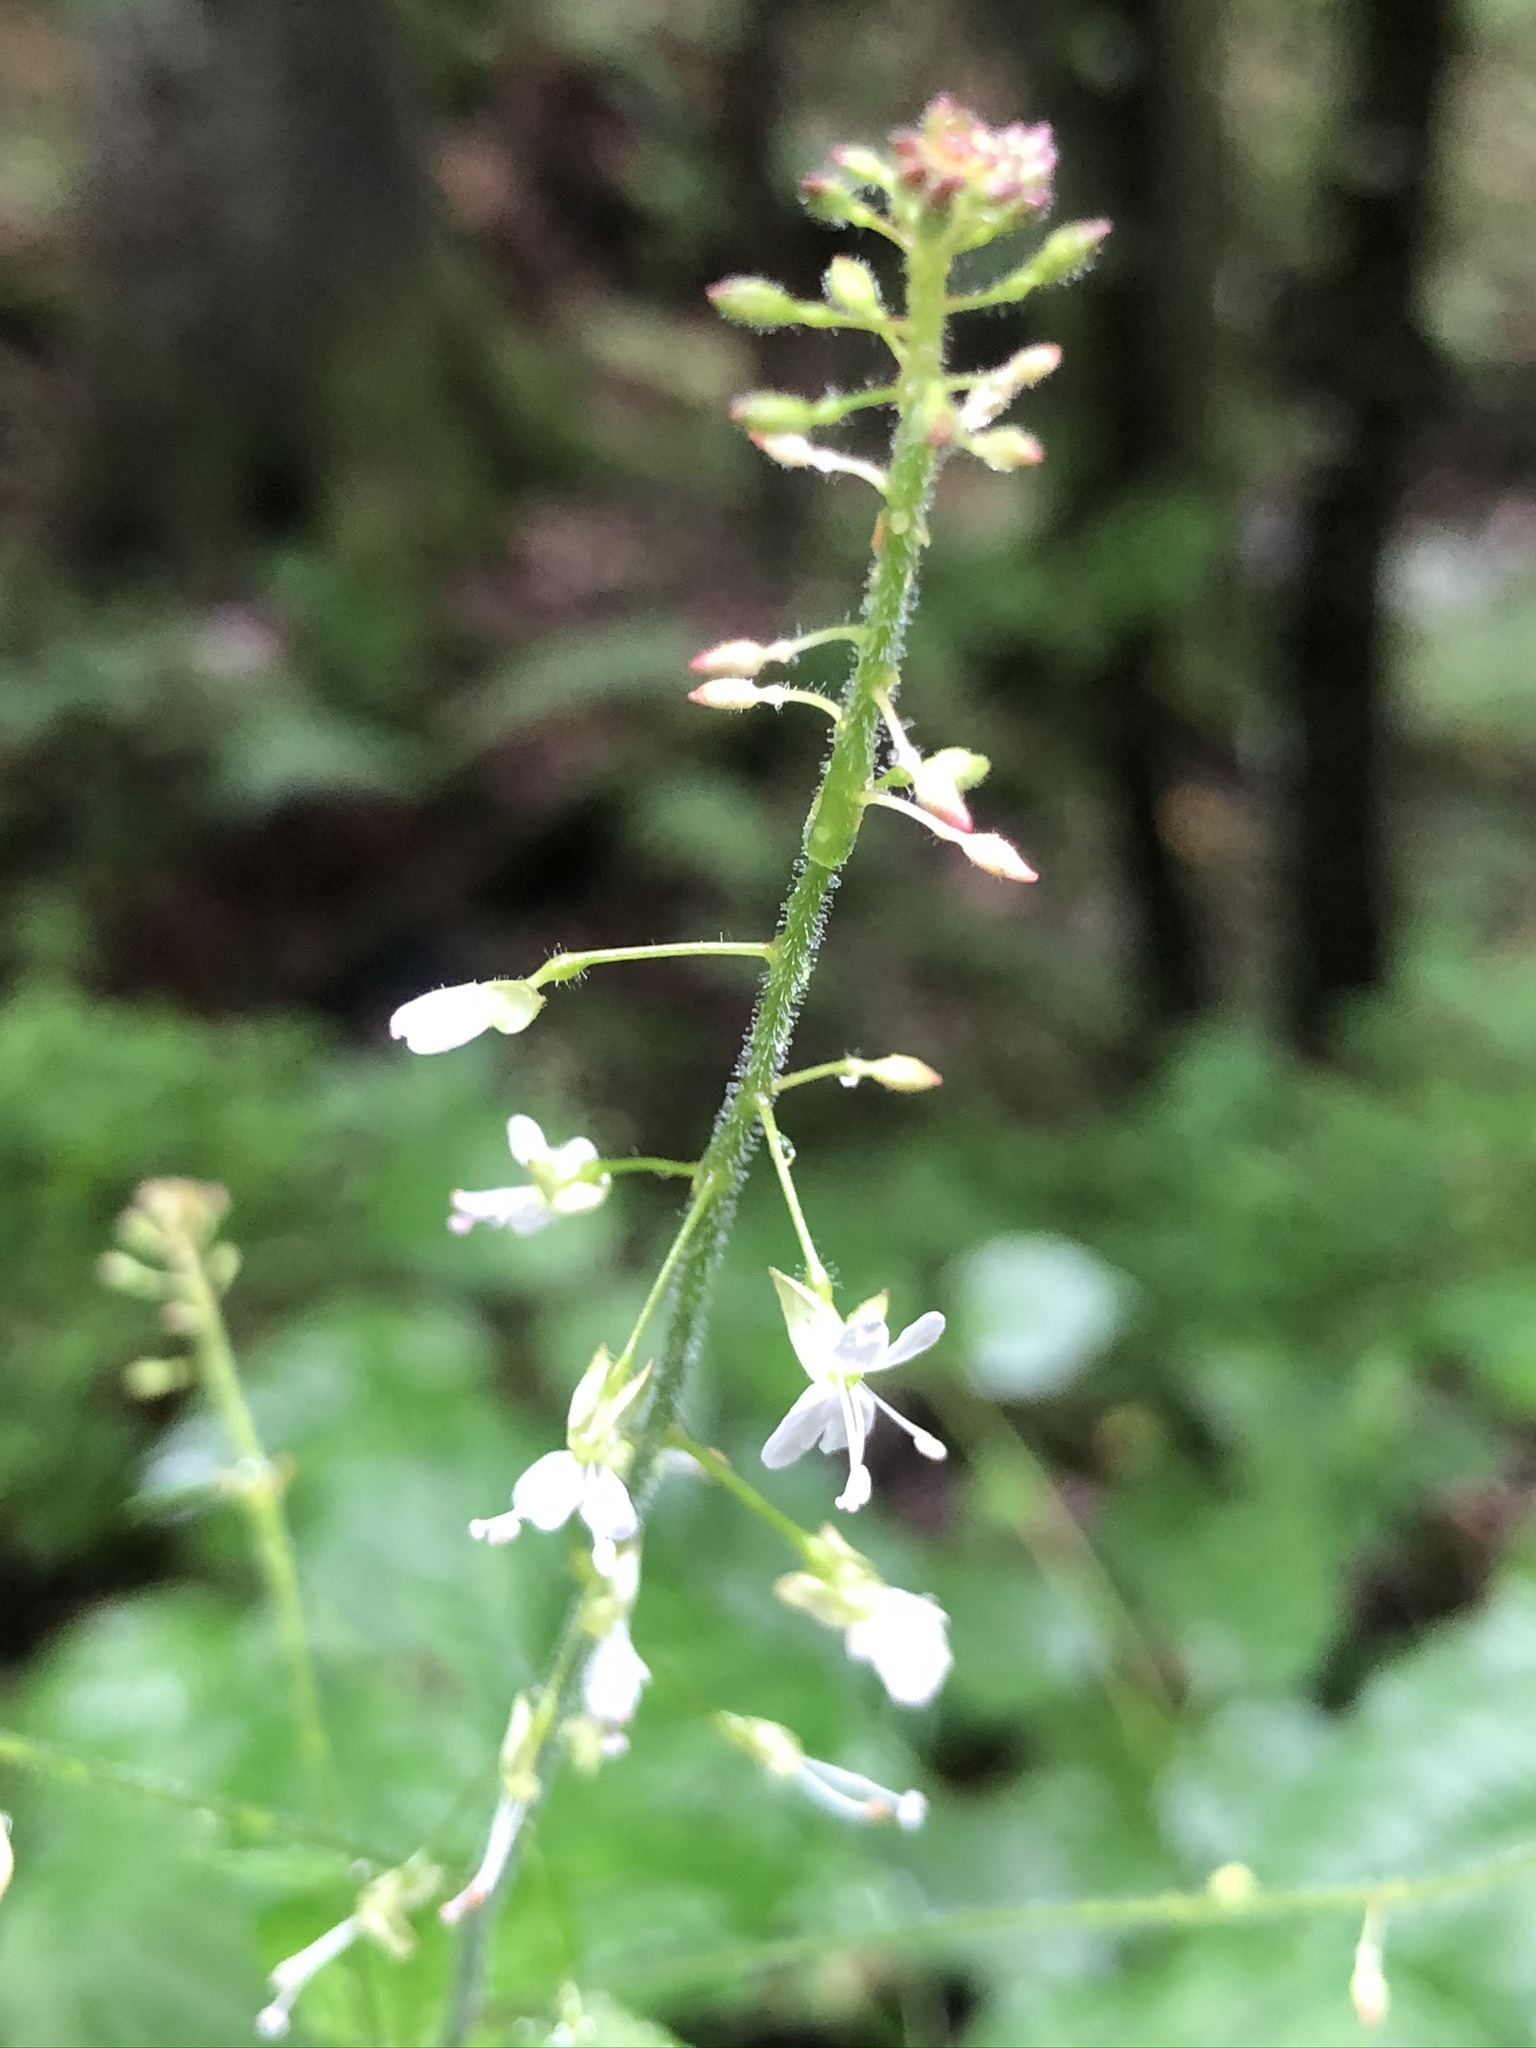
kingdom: Plantae
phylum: Tracheophyta
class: Magnoliopsida
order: Myrtales
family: Onagraceae
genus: Circaea
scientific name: Circaea lutetiana
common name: Enchanter's-nightshade
